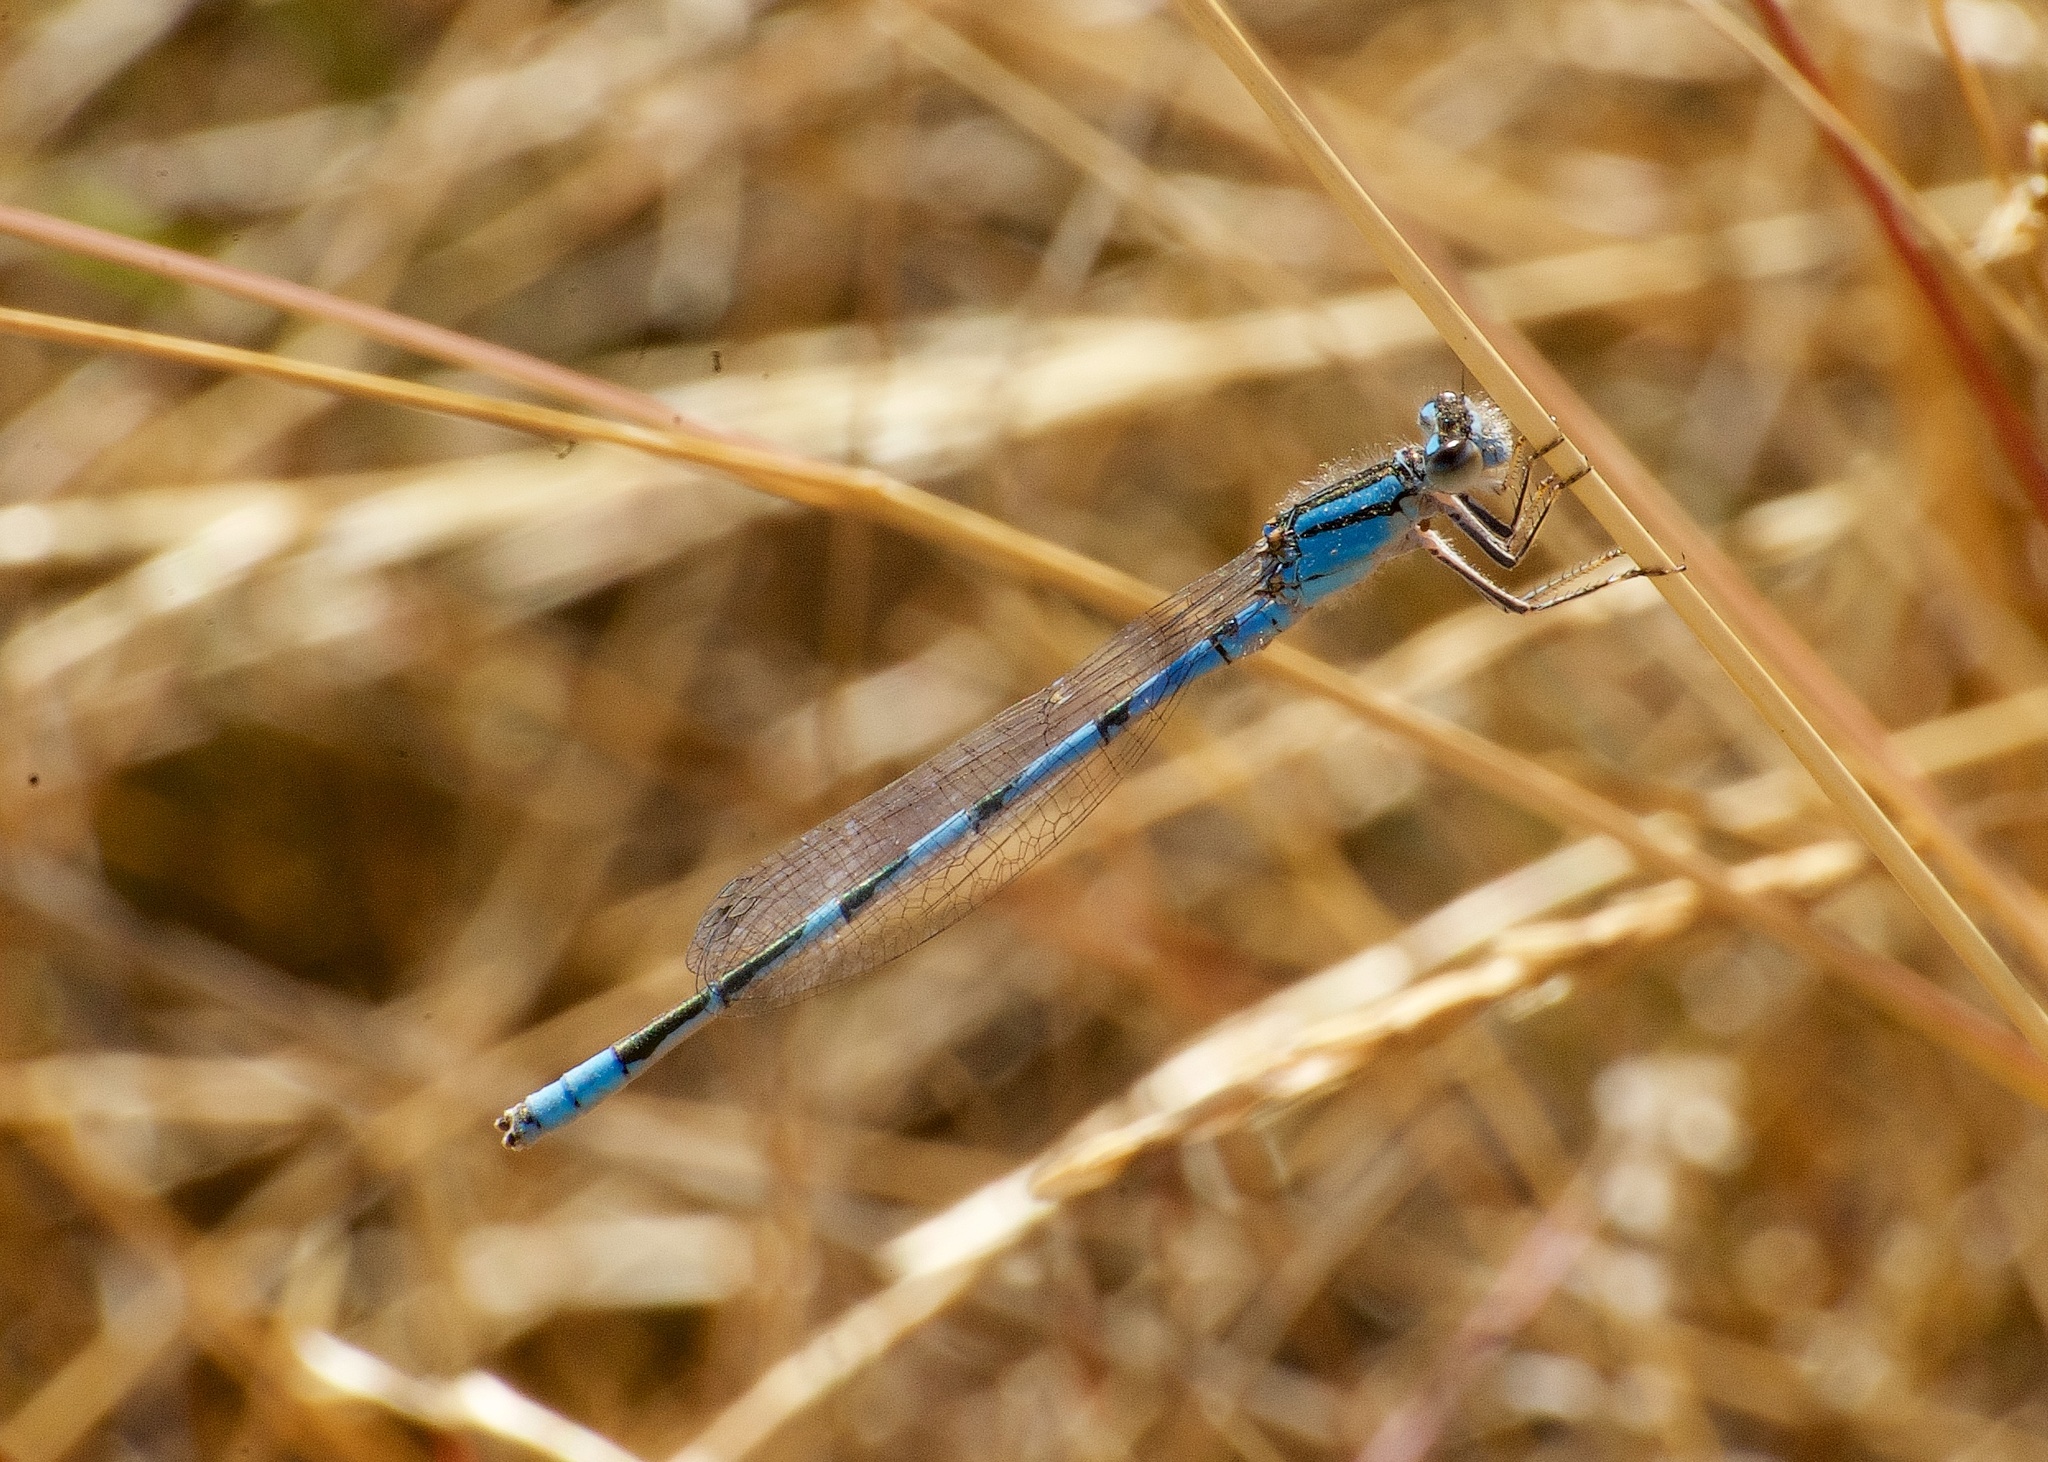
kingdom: Animalia
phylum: Arthropoda
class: Insecta
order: Odonata
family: Coenagrionidae
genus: Enallagma
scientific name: Enallagma carunculatum
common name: Tule bluet
